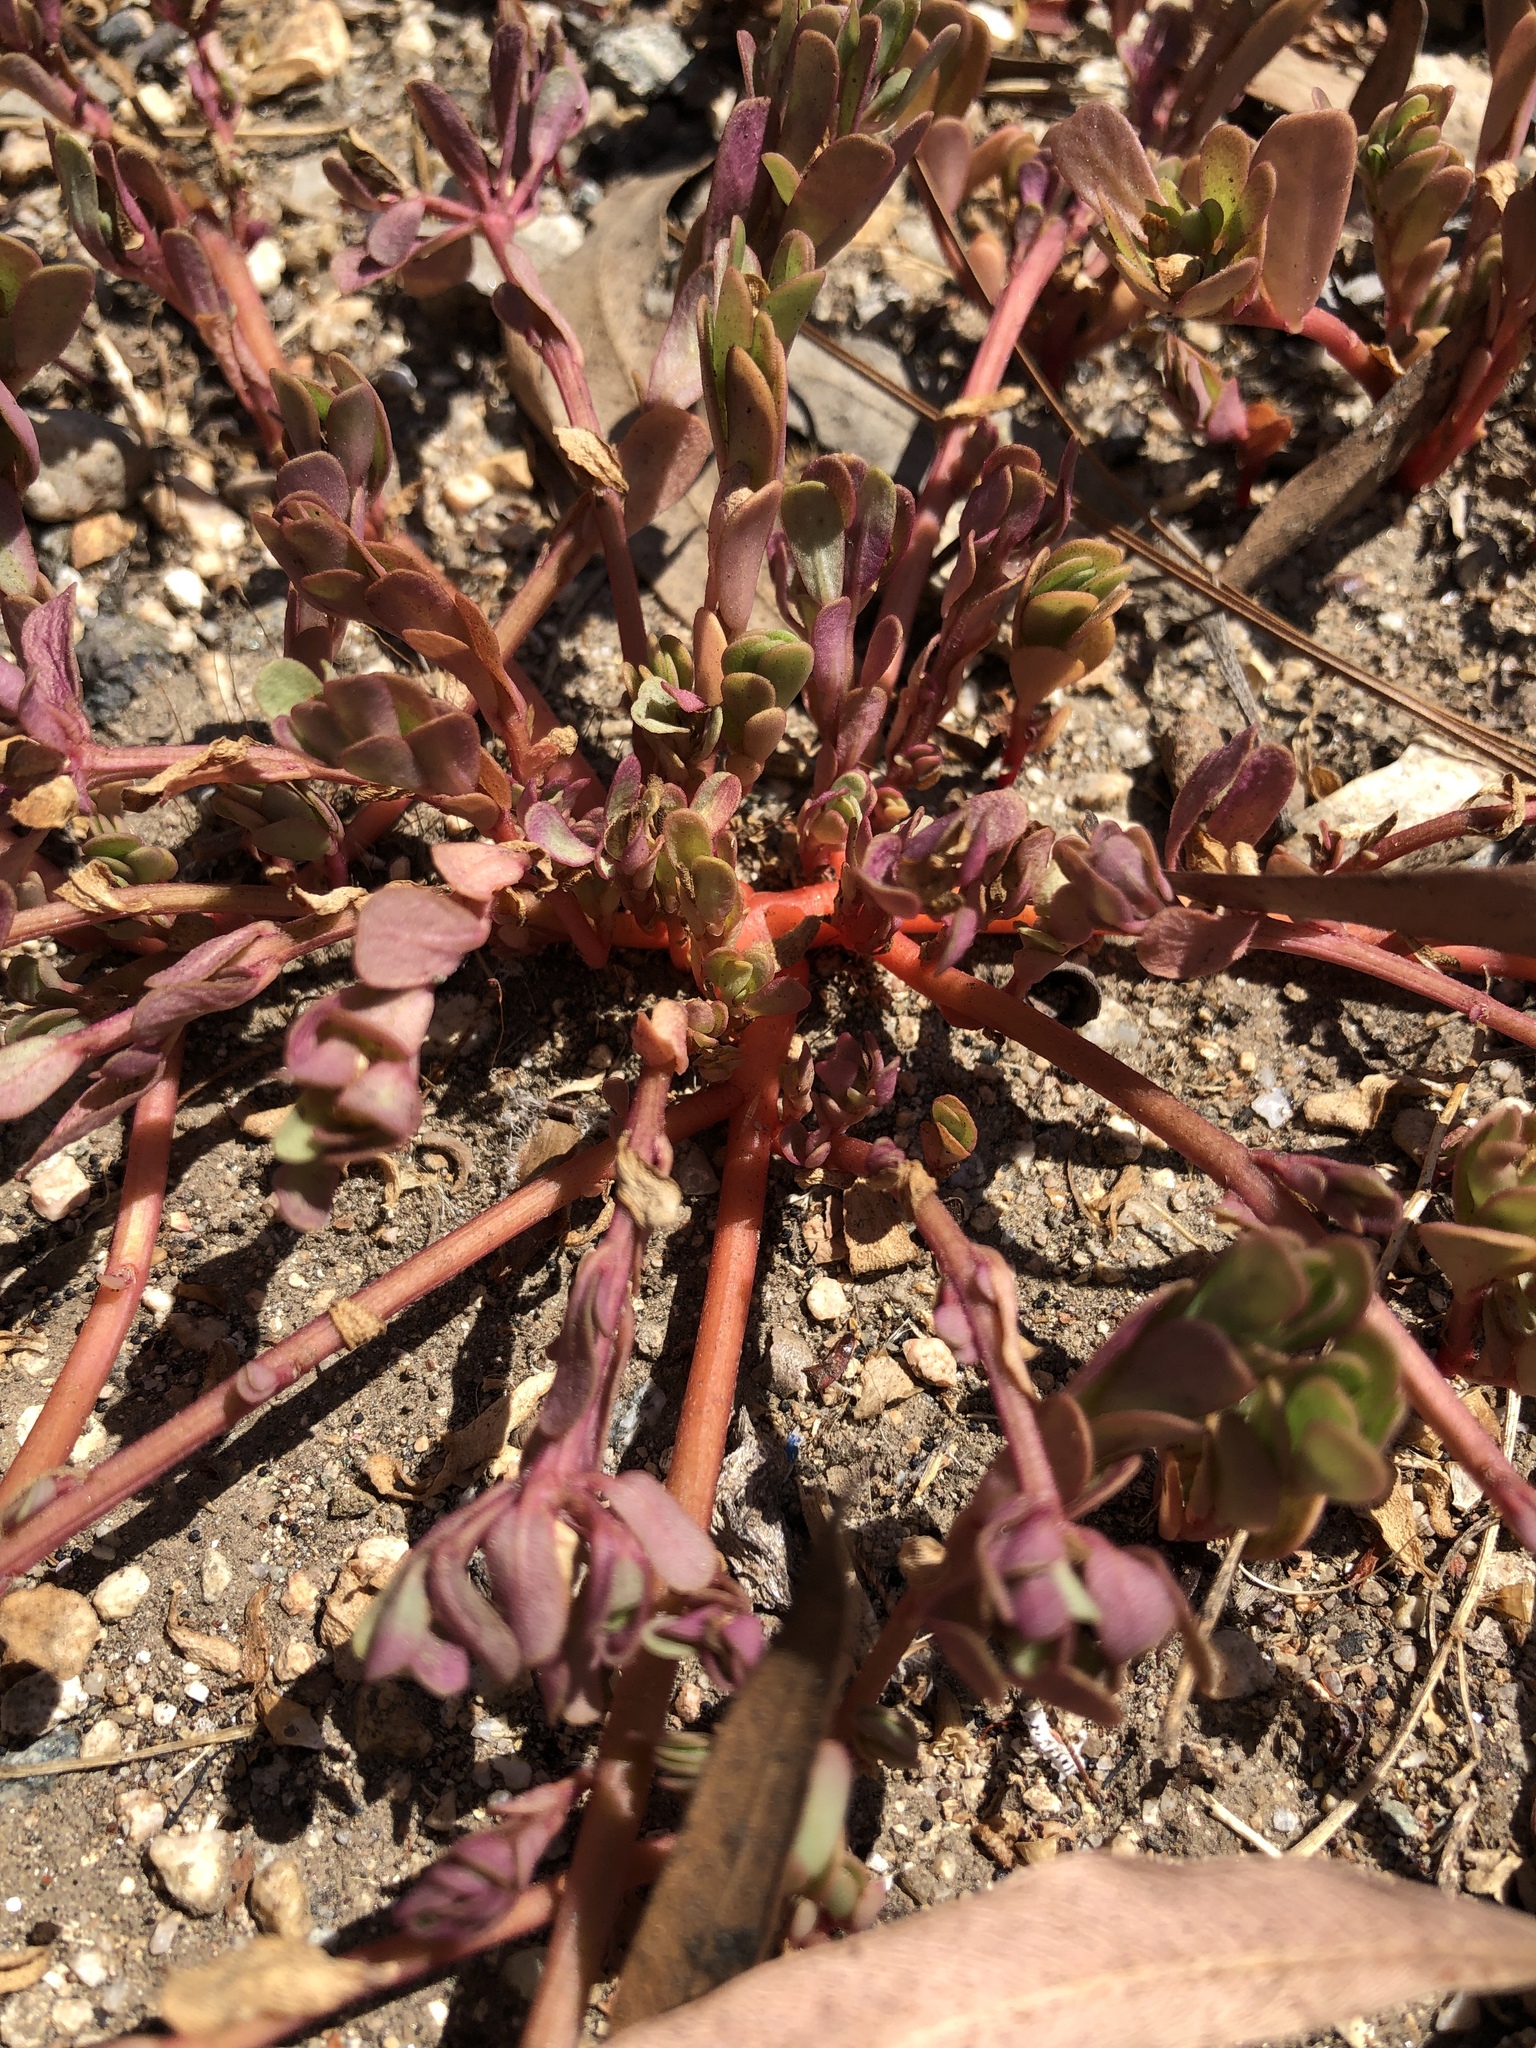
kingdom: Plantae
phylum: Tracheophyta
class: Magnoliopsida
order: Caryophyllales
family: Portulacaceae
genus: Portulaca
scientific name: Portulaca oleracea
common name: Common purslane
